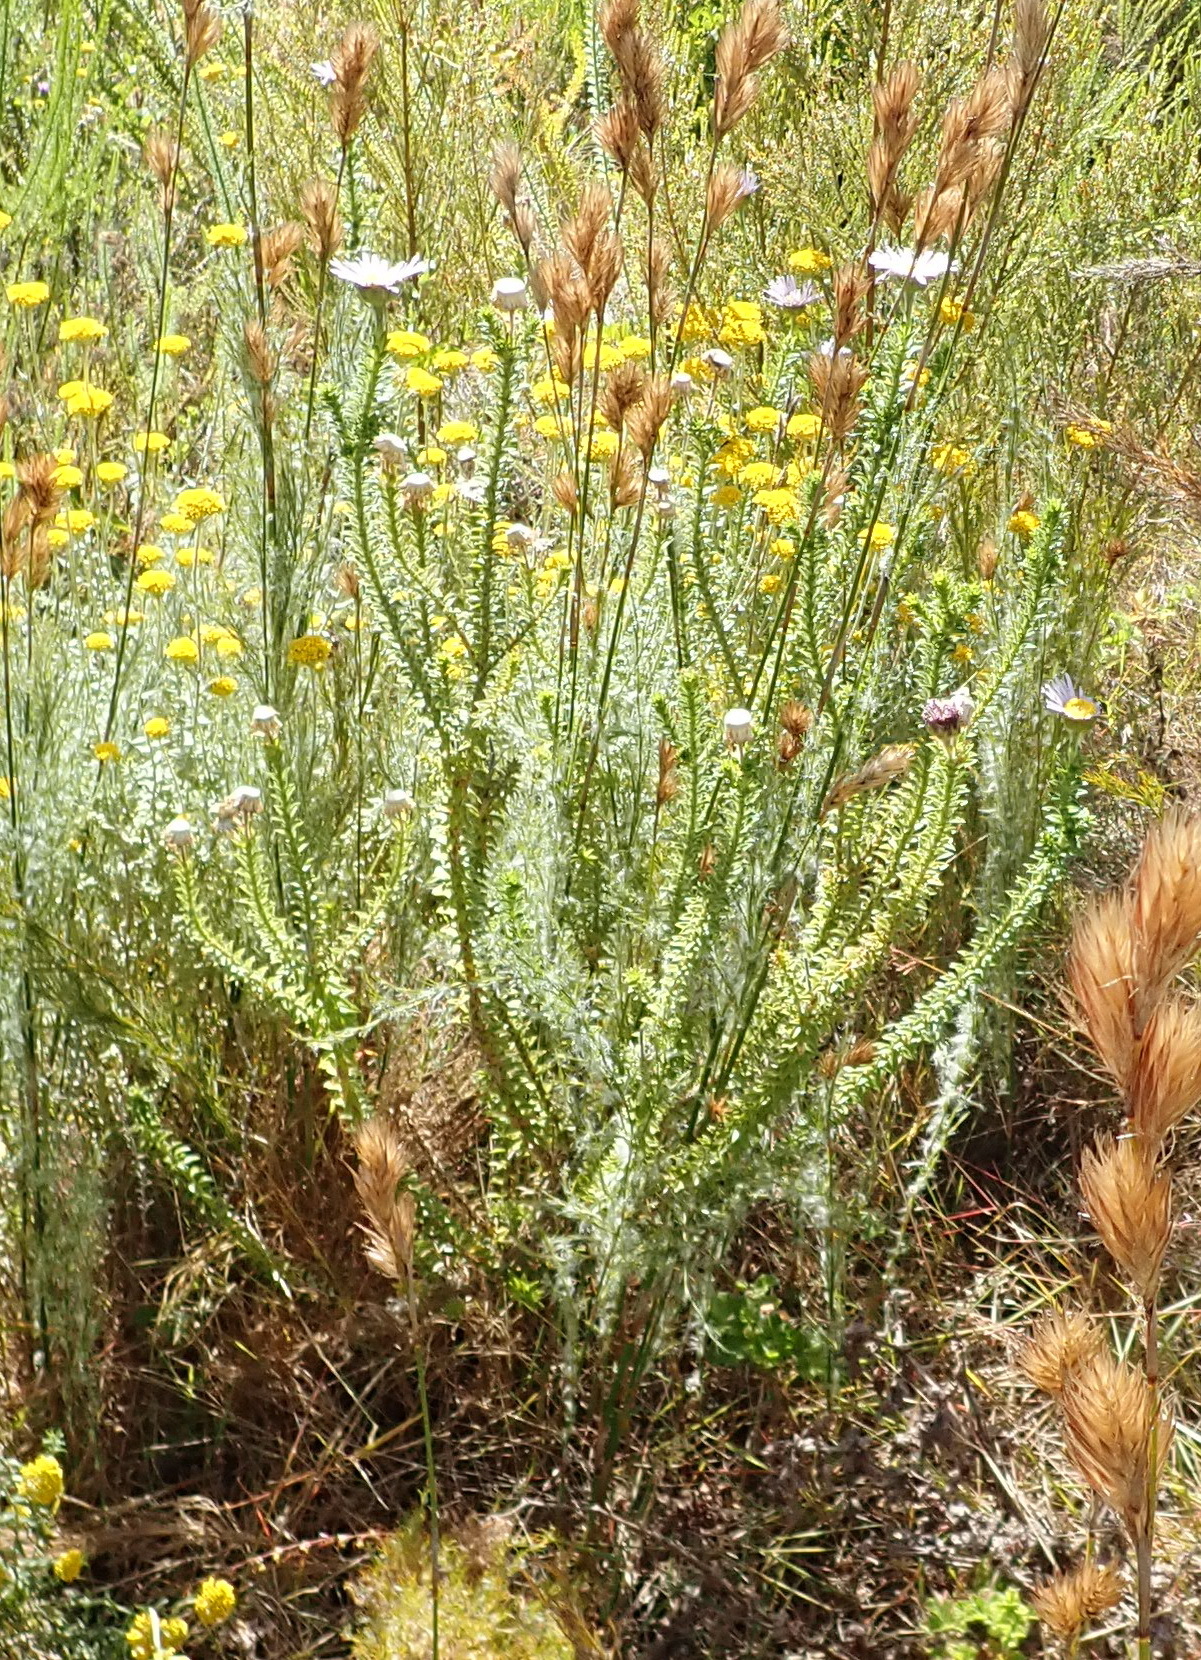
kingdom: Plantae
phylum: Tracheophyta
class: Magnoliopsida
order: Asterales
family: Asteraceae
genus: Felicia
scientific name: Felicia echinata
